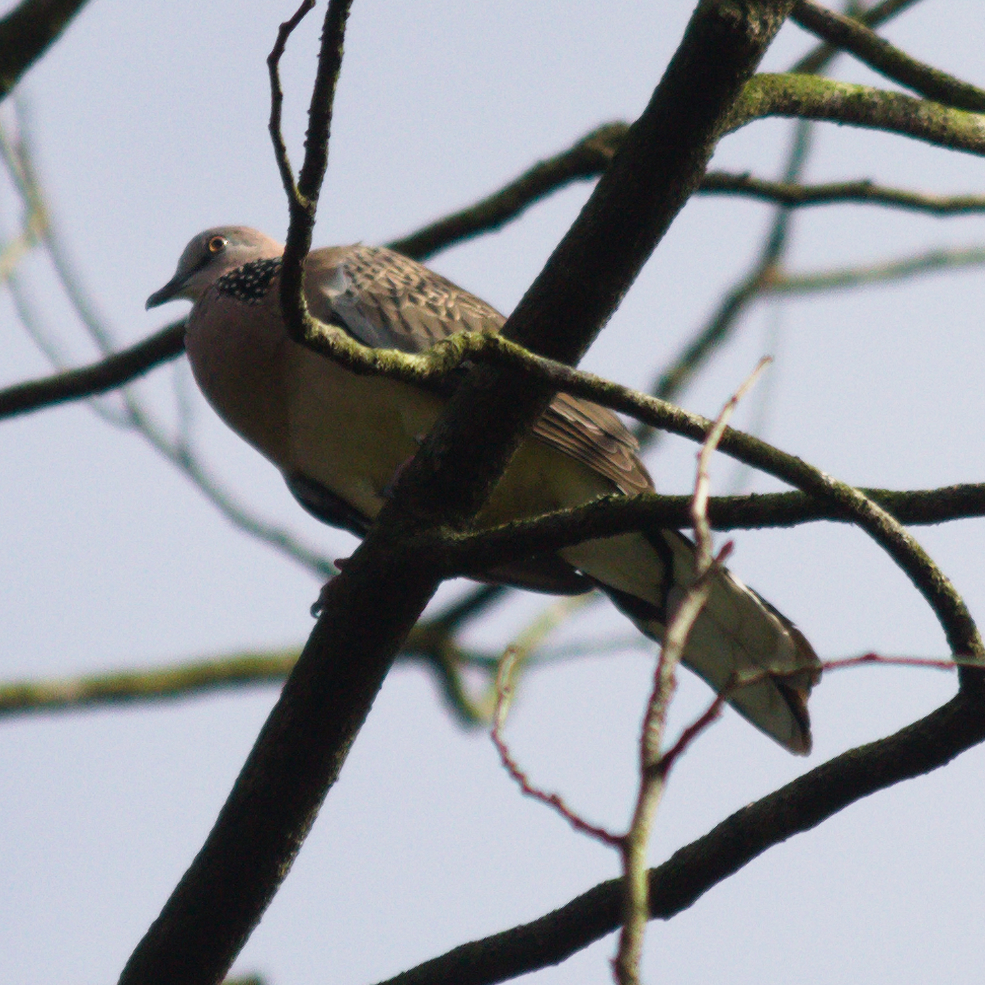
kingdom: Animalia
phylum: Chordata
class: Aves
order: Columbiformes
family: Columbidae
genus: Spilopelia
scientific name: Spilopelia chinensis
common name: Spotted dove
